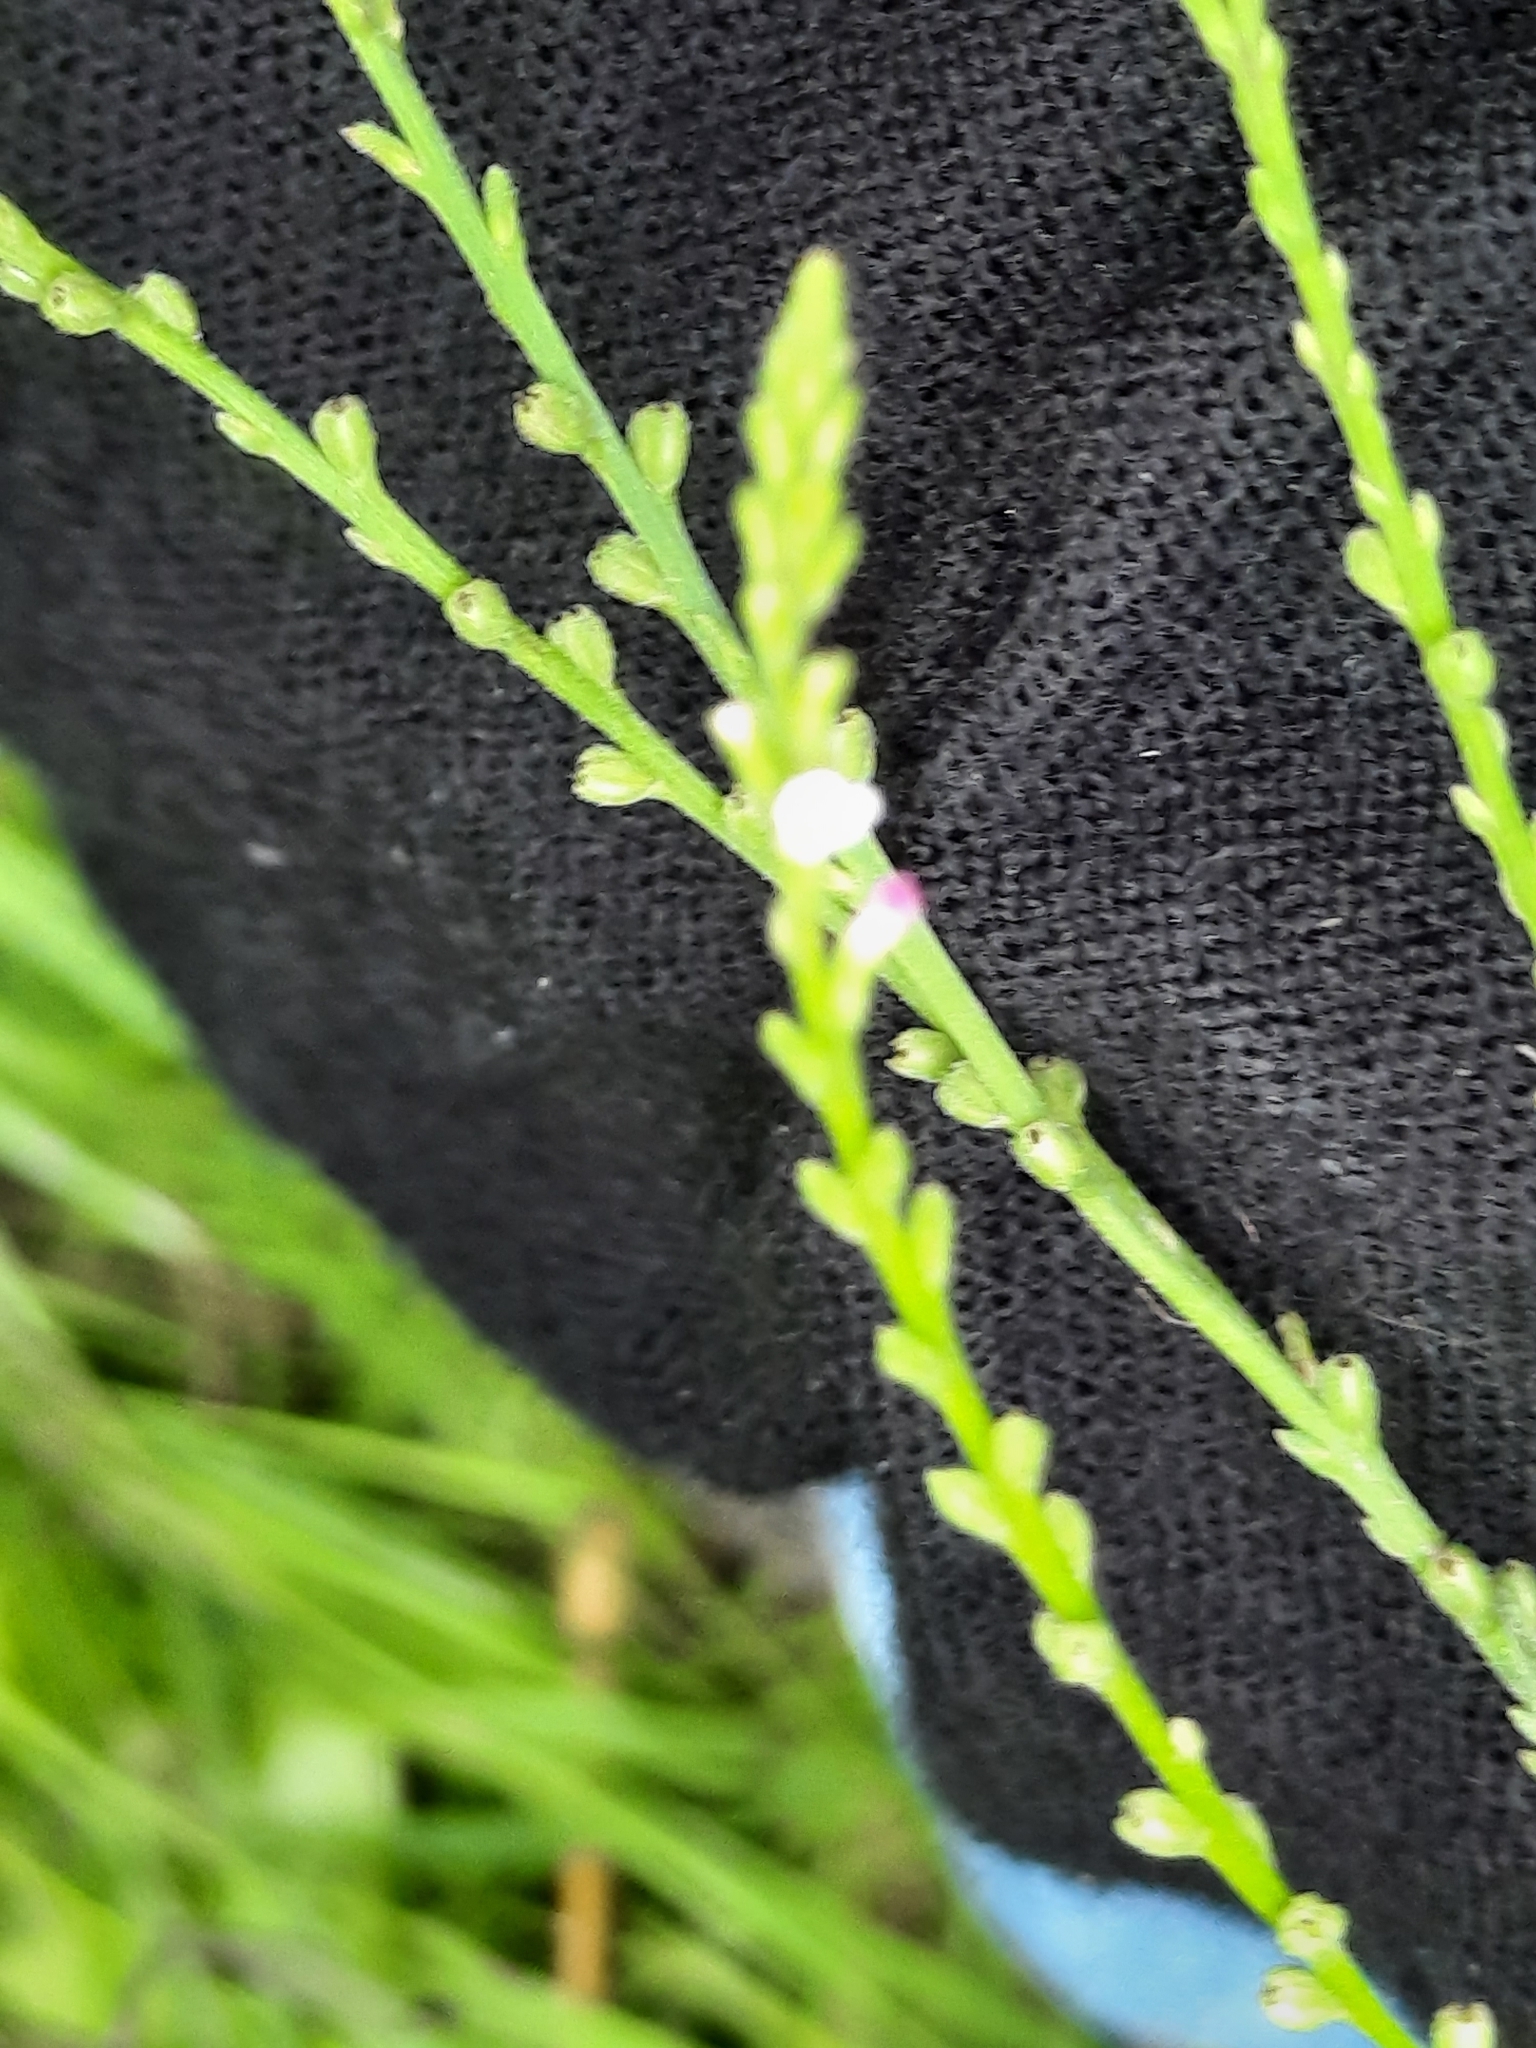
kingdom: Plantae
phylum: Tracheophyta
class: Magnoliopsida
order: Lamiales
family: Verbenaceae
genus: Verbena
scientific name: Verbena urticifolia
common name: Nettle-leaved vervain
